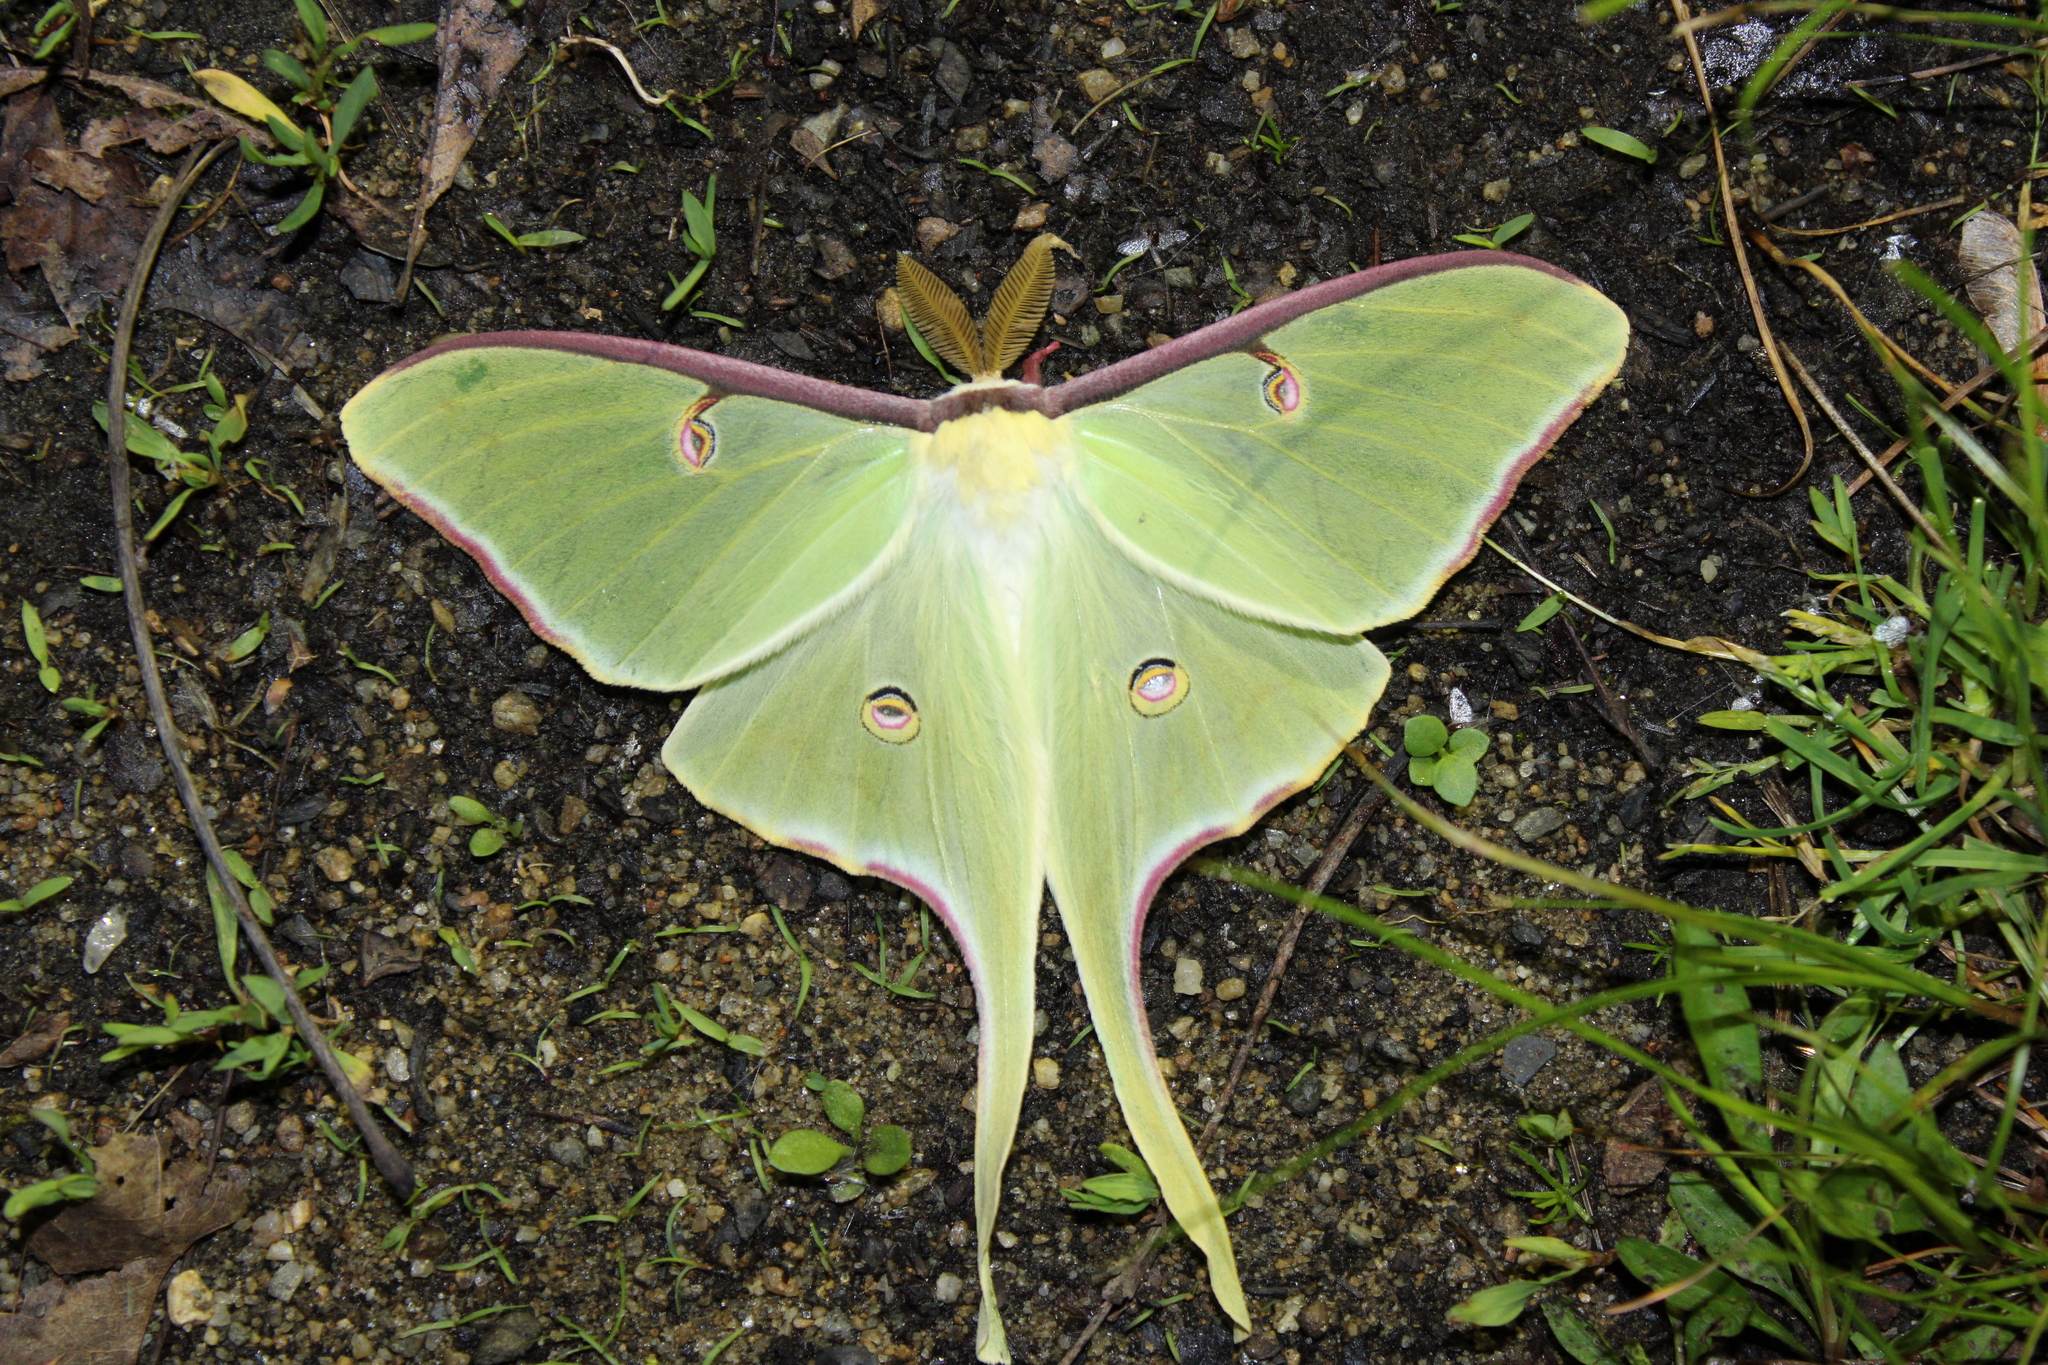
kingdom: Animalia
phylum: Arthropoda
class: Insecta
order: Lepidoptera
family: Saturniidae
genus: Actias
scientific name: Actias luna
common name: Luna moth
